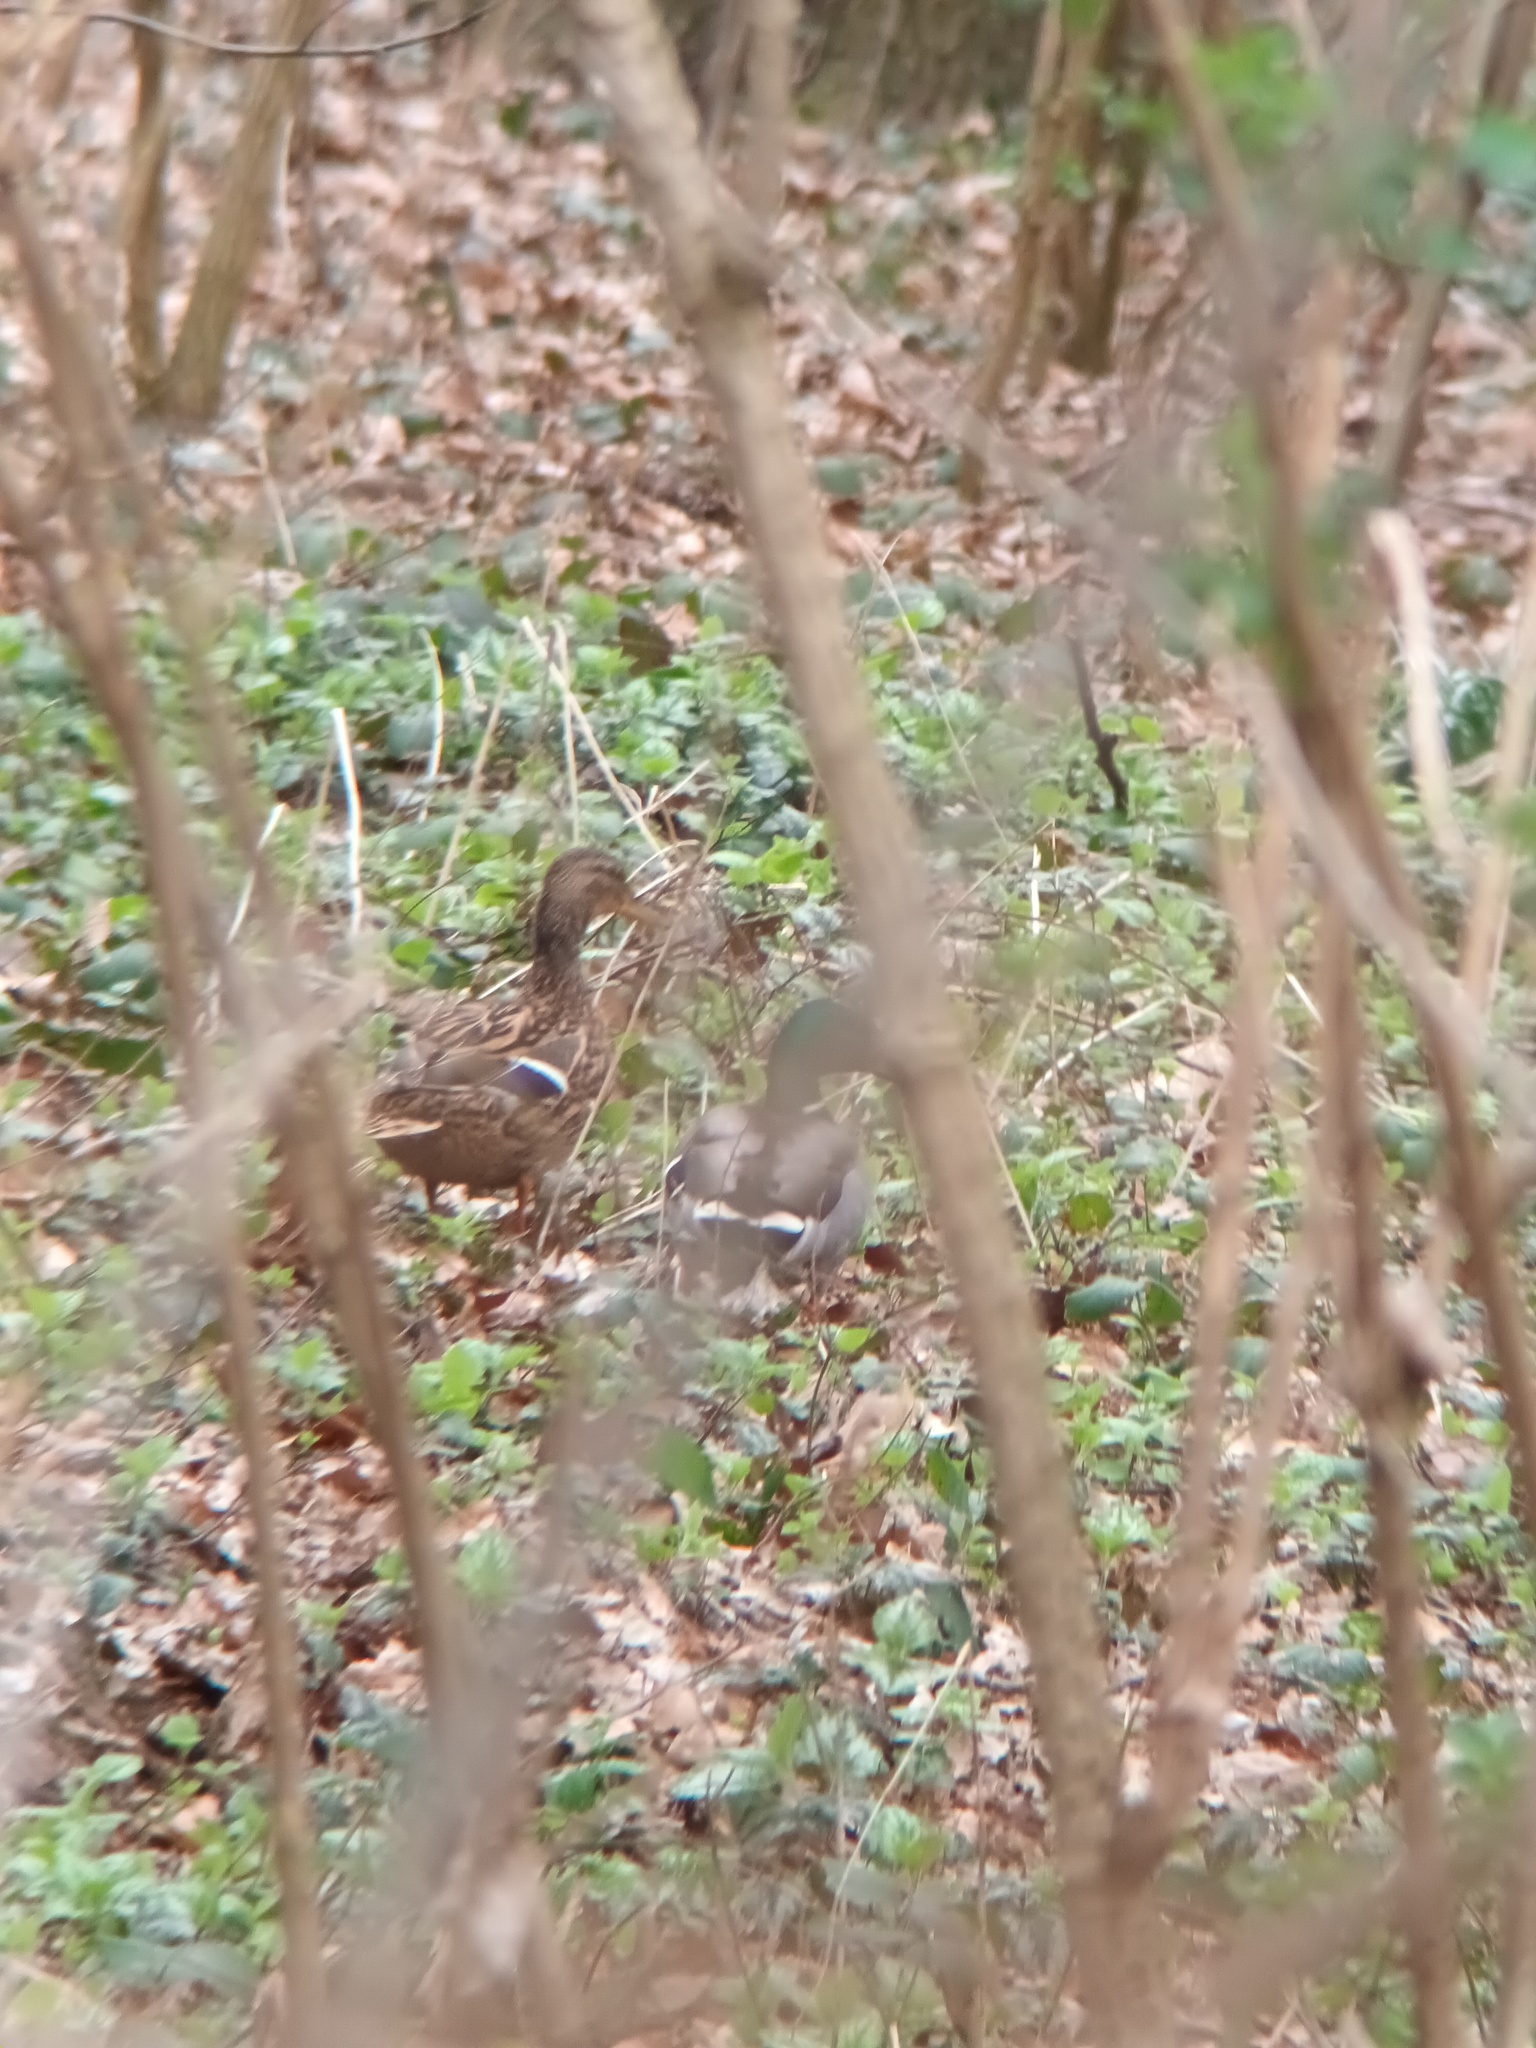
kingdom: Animalia
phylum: Chordata
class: Aves
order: Anseriformes
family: Anatidae
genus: Anas
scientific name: Anas platyrhynchos
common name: Mallard
